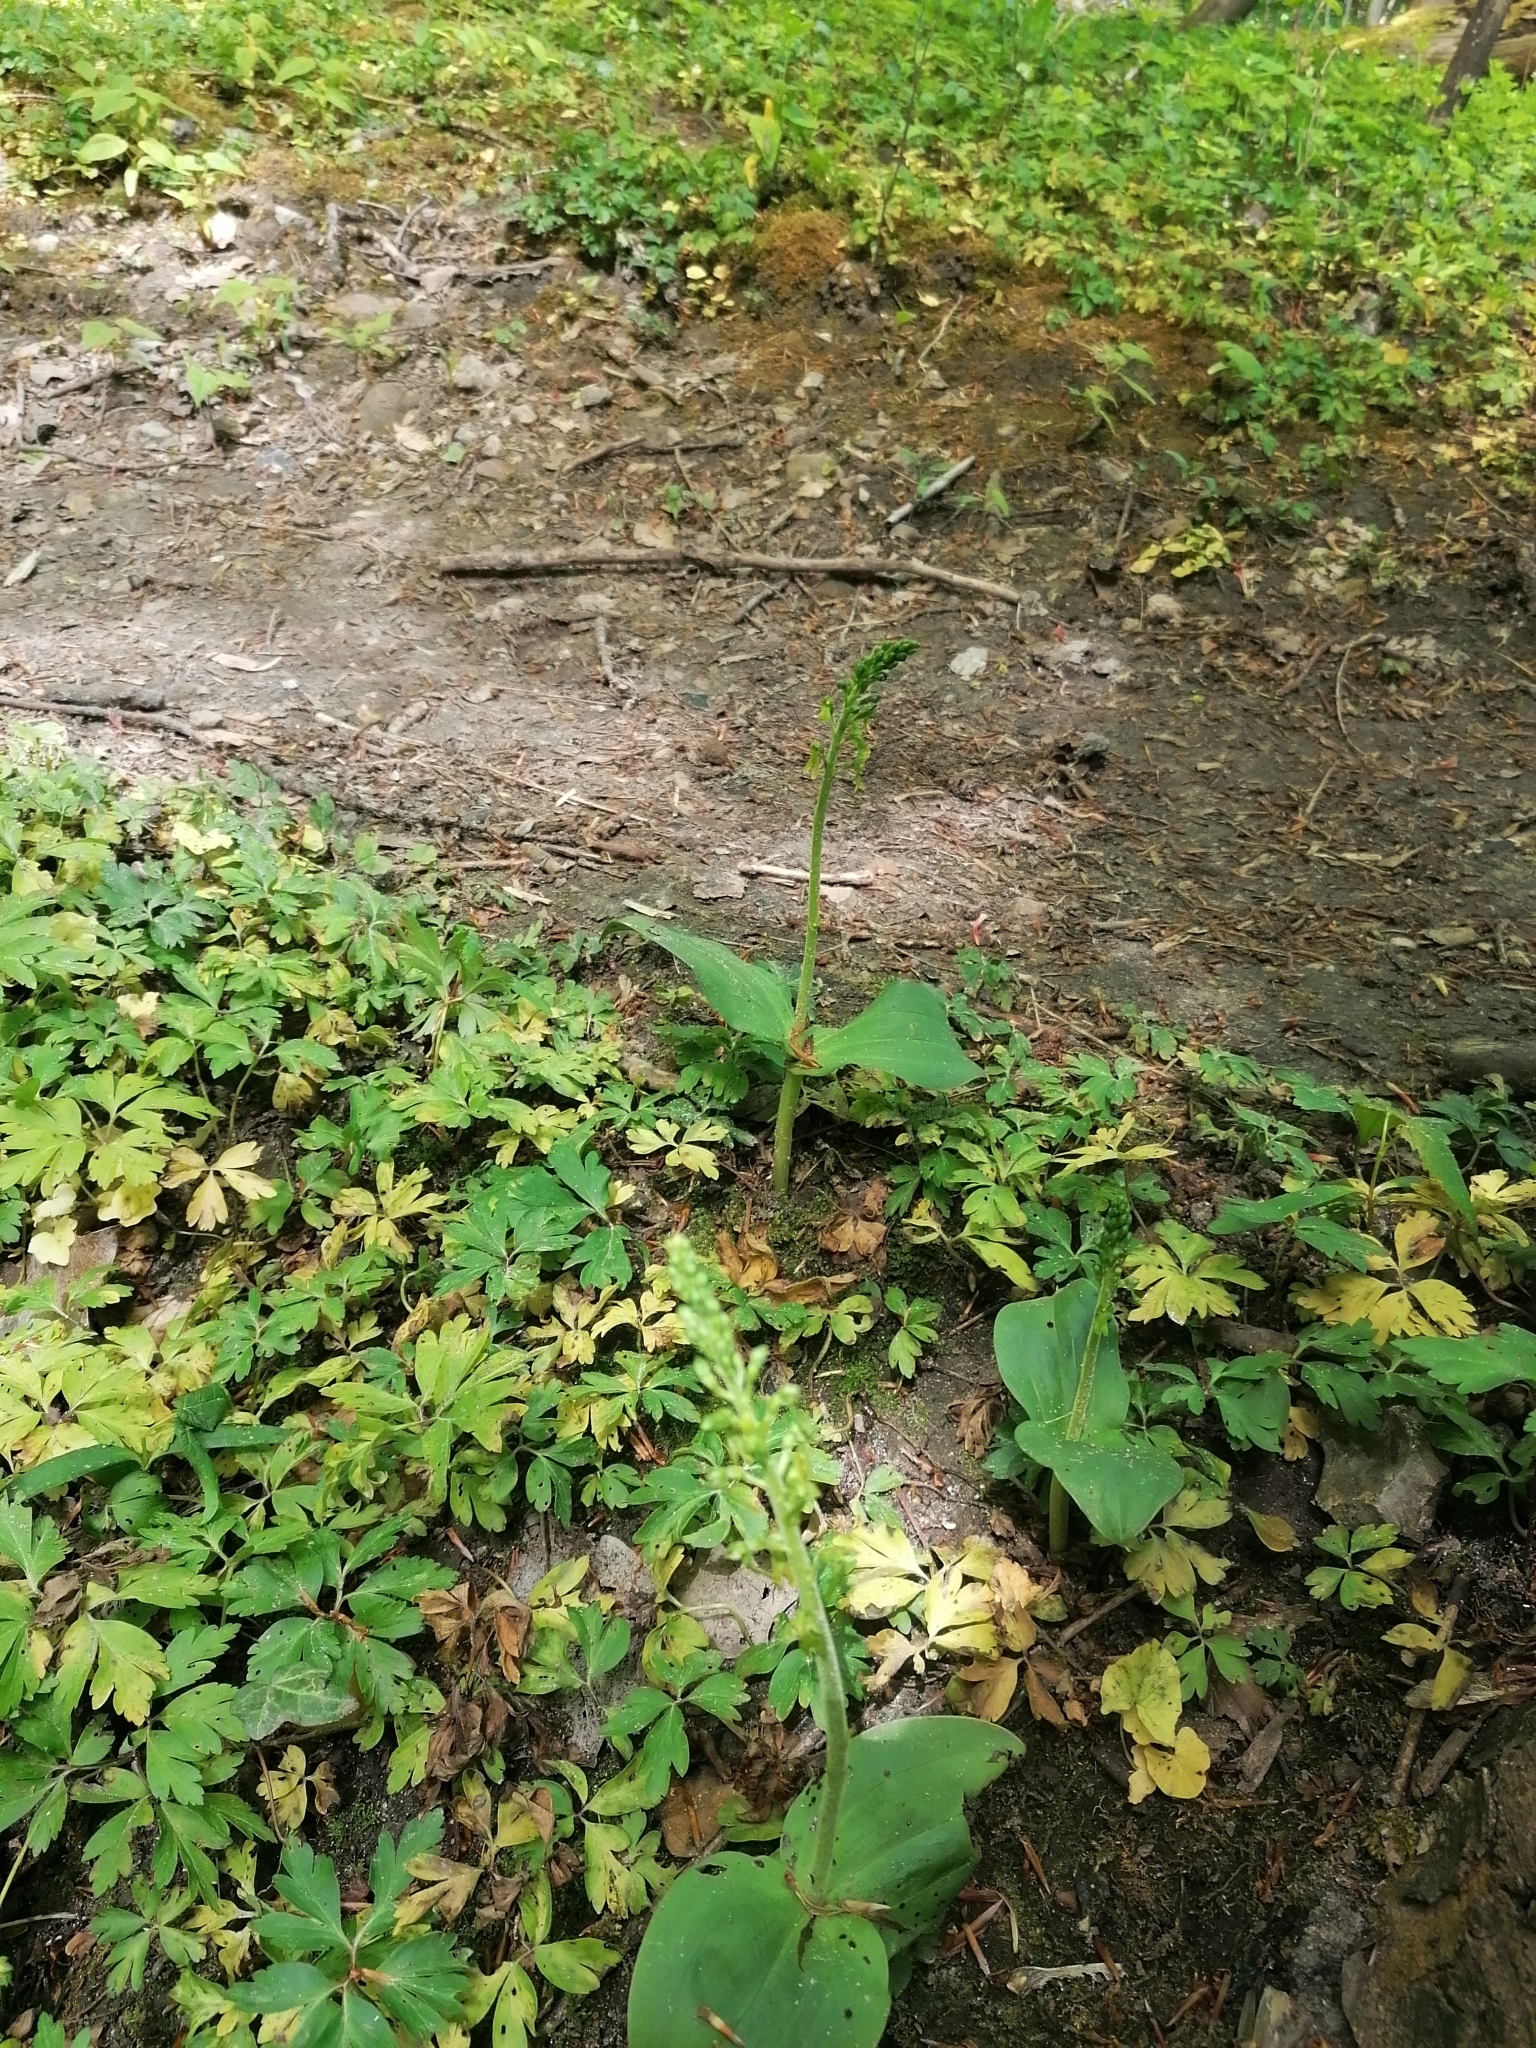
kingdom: Plantae
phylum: Tracheophyta
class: Liliopsida
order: Asparagales
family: Orchidaceae
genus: Neottia
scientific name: Neottia ovata
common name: Common twayblade
